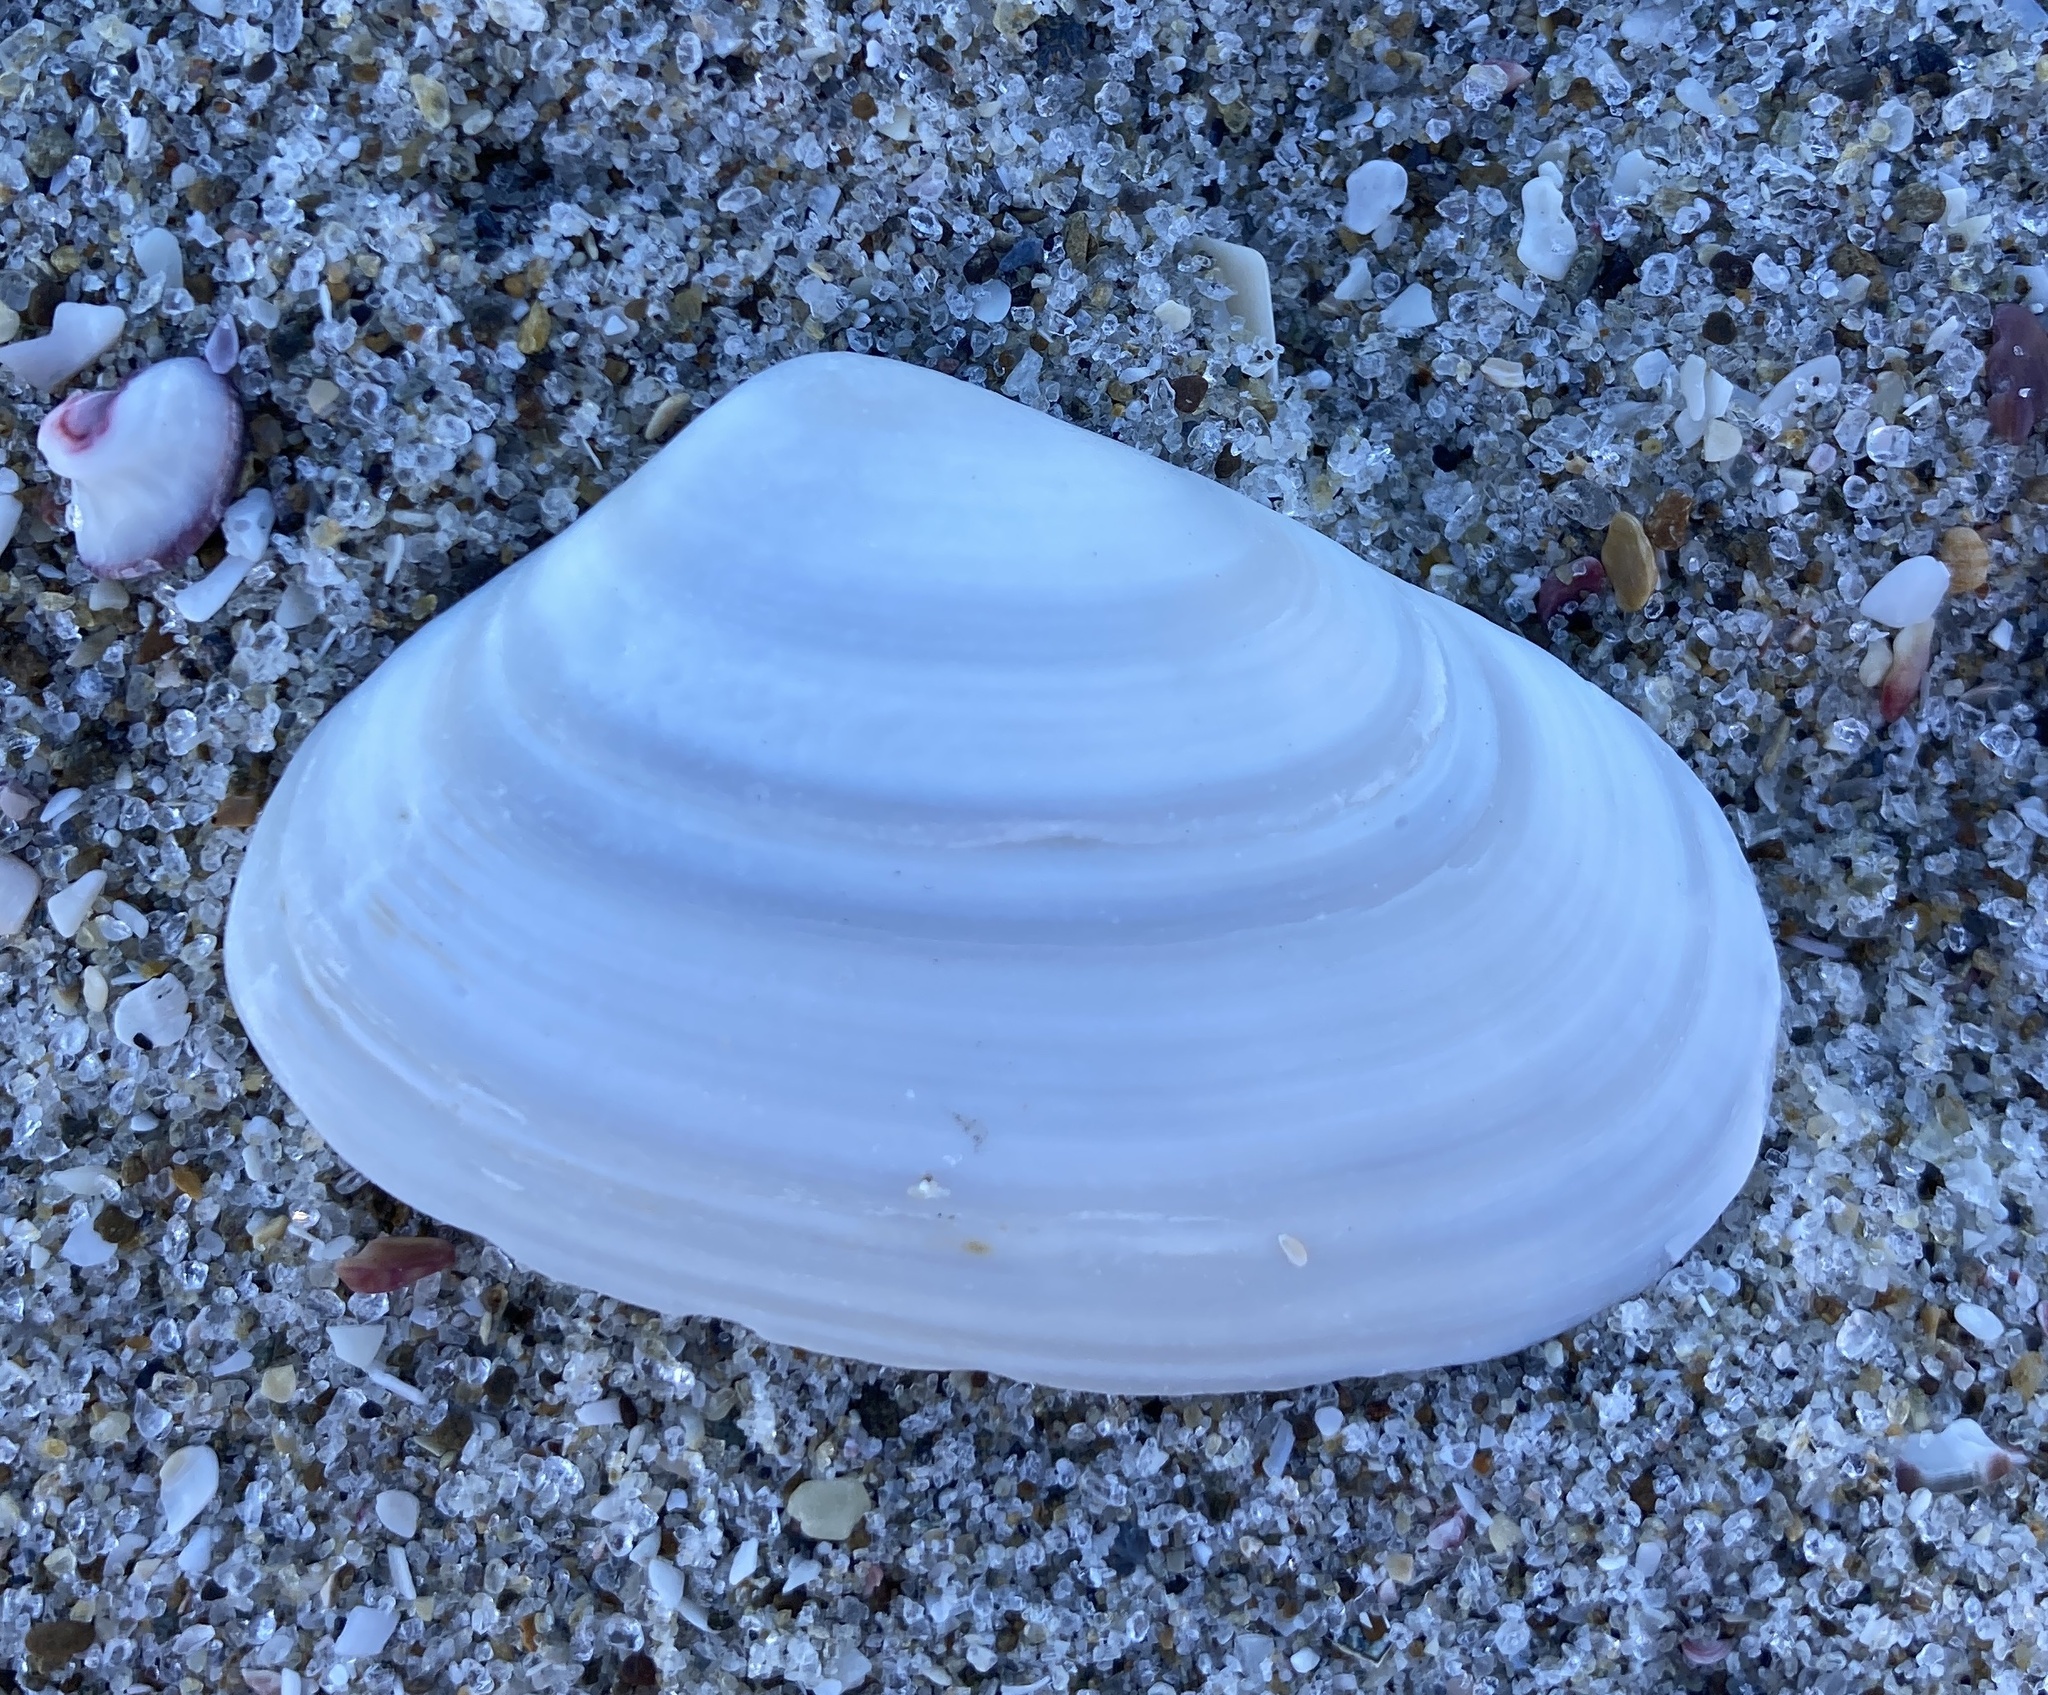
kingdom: Animalia
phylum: Mollusca
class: Bivalvia
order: Venerida
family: Mesodesmatidae
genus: Paphies
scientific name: Paphies subtriangulata
